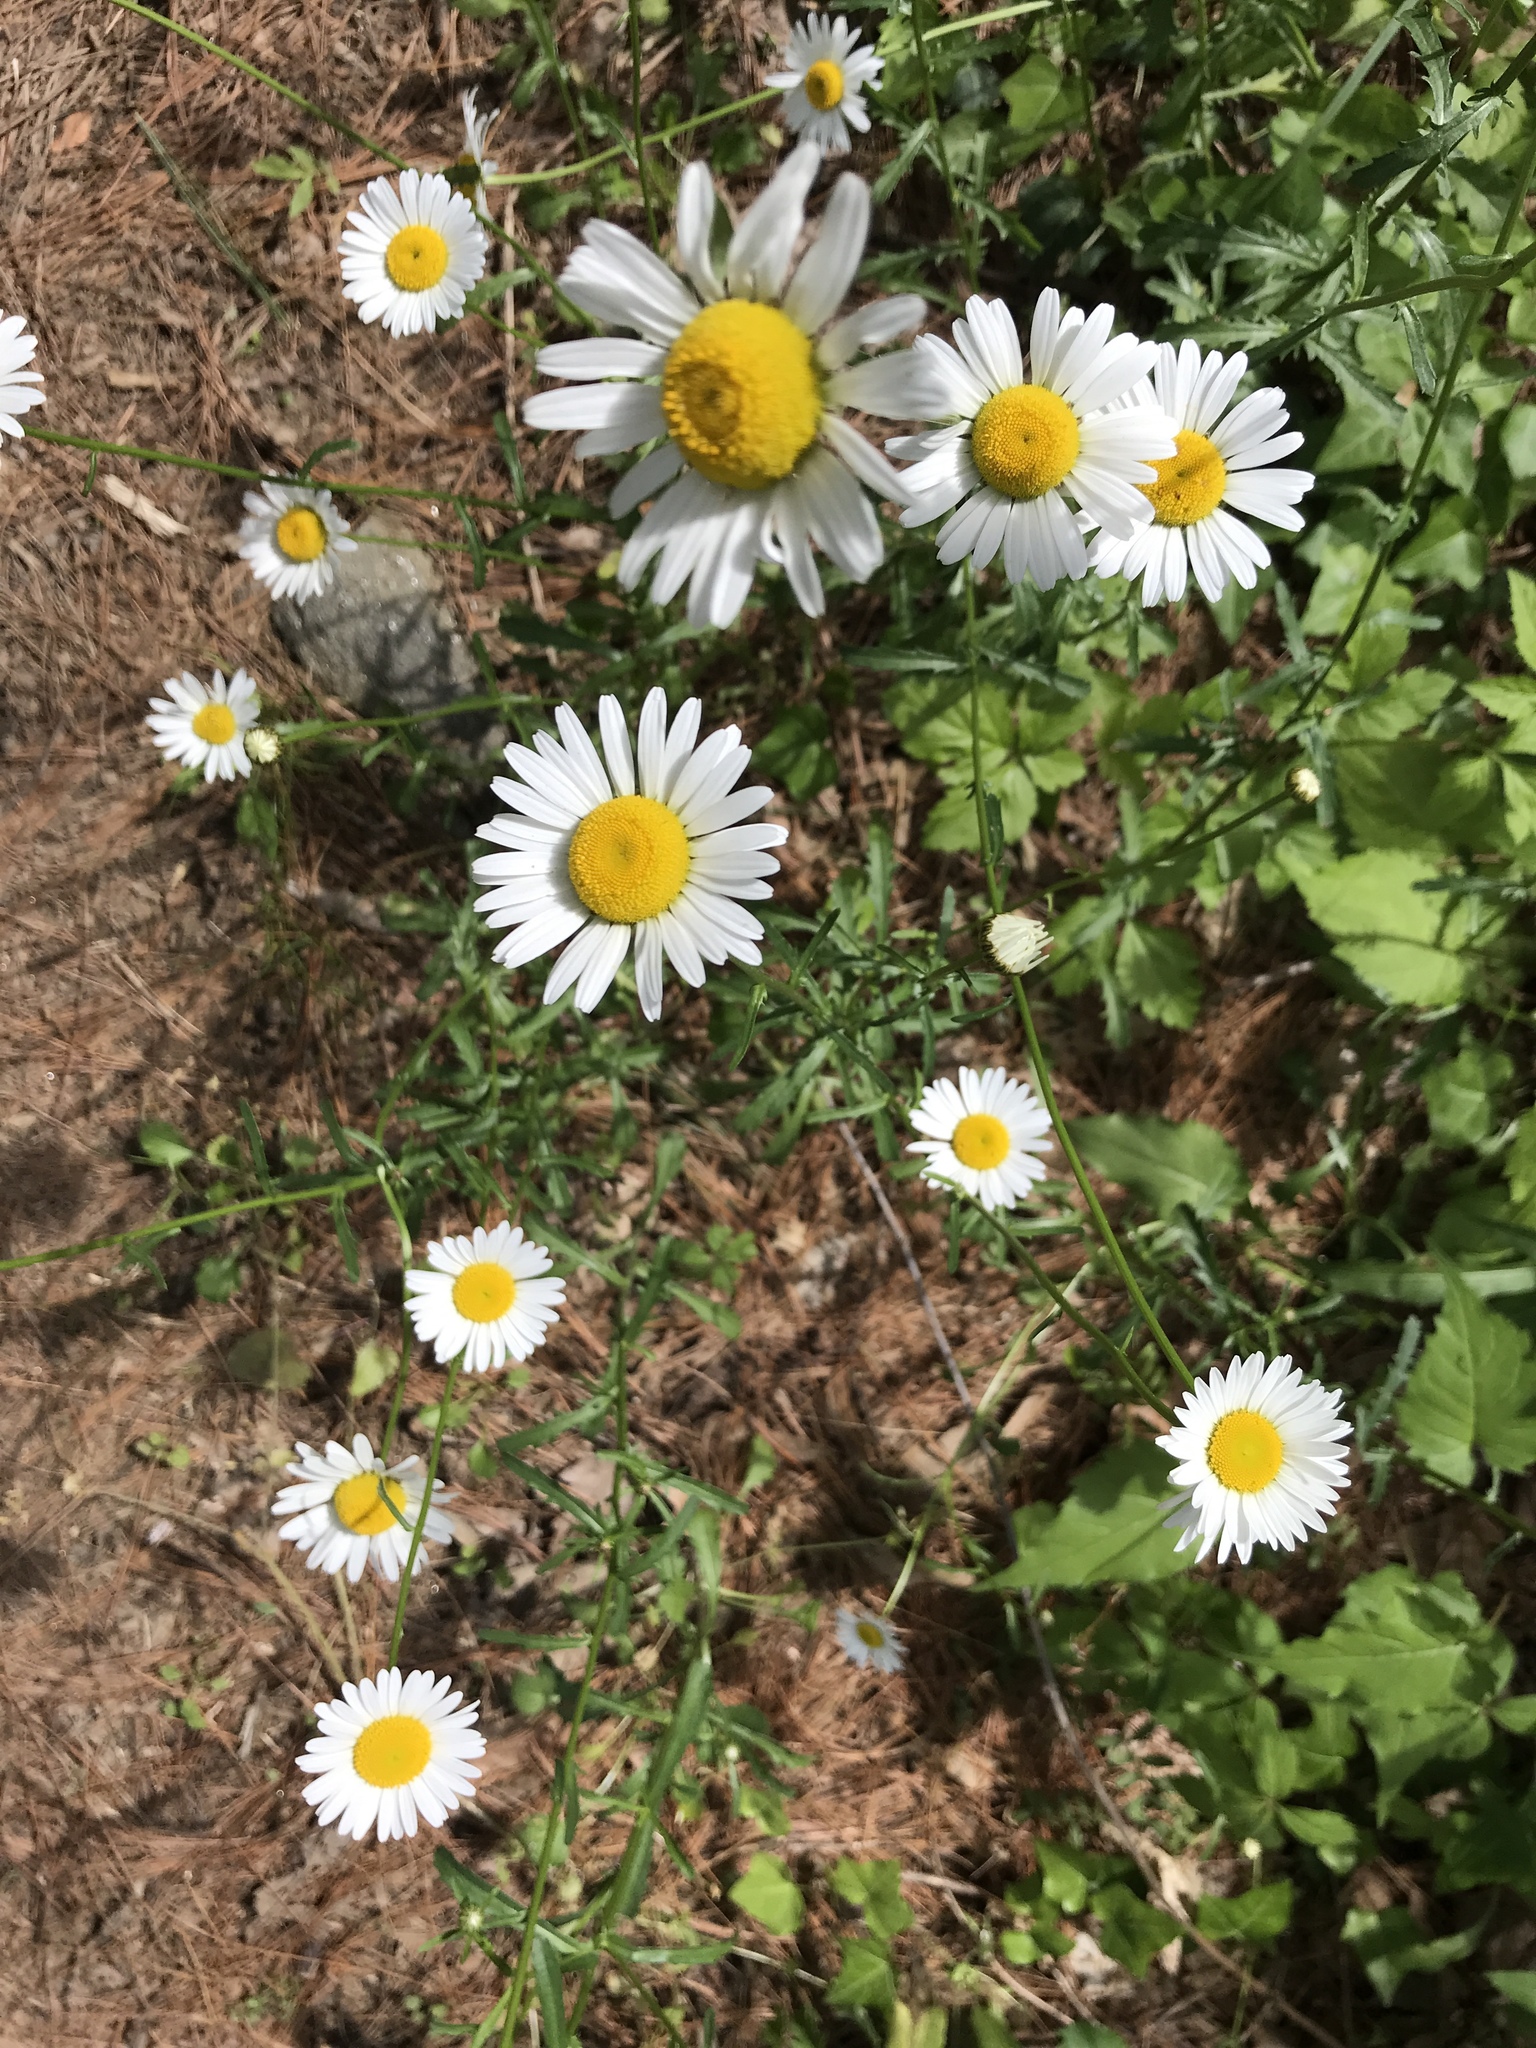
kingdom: Plantae
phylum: Tracheophyta
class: Magnoliopsida
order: Asterales
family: Asteraceae
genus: Leucanthemum
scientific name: Leucanthemum vulgare
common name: Oxeye daisy
